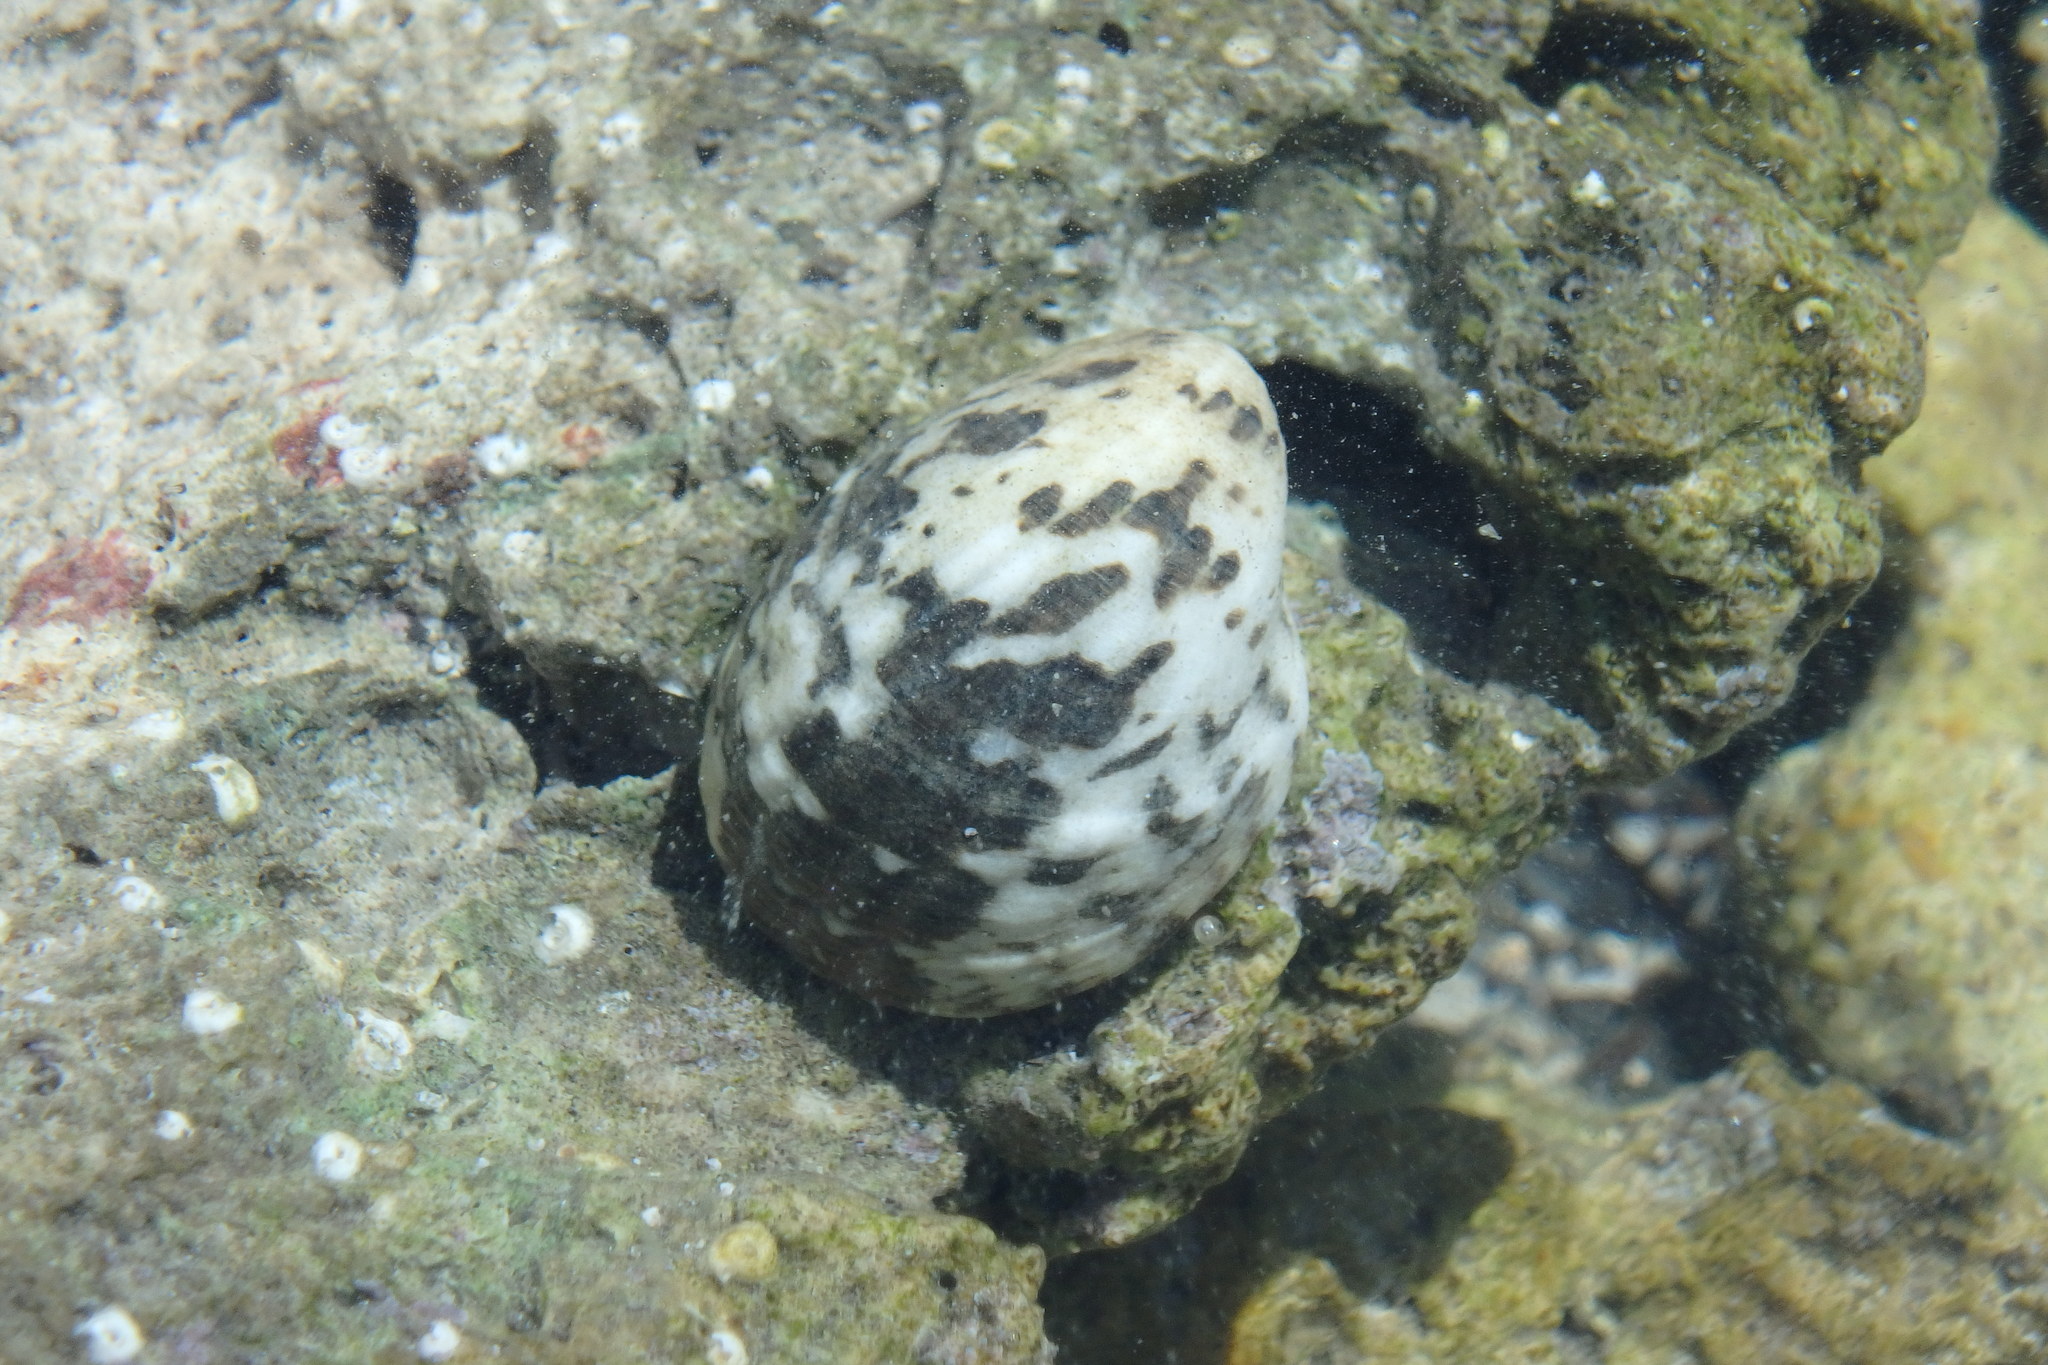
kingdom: Animalia
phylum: Mollusca
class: Gastropoda
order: Cycloneritida
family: Neritidae
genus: Nerita
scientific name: Nerita albicilla
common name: Blotched nerite
